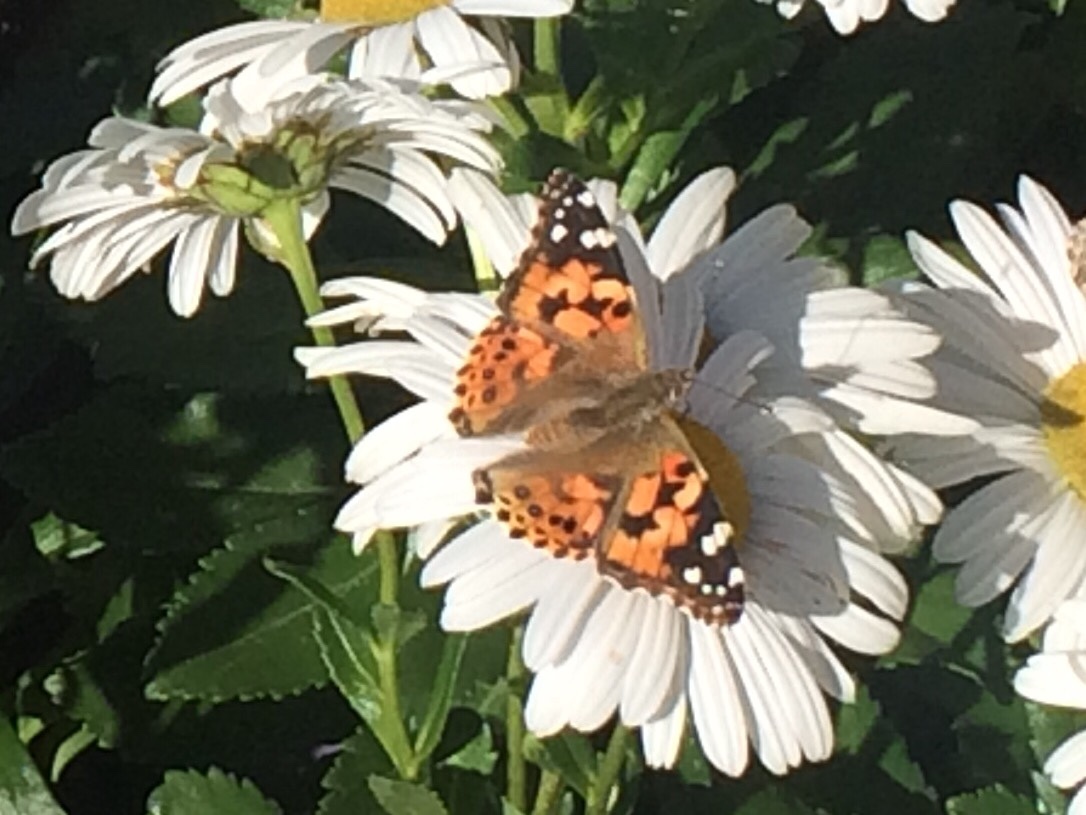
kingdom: Animalia
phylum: Arthropoda
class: Insecta
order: Lepidoptera
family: Nymphalidae
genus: Vanessa
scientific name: Vanessa cardui
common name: Painted lady
